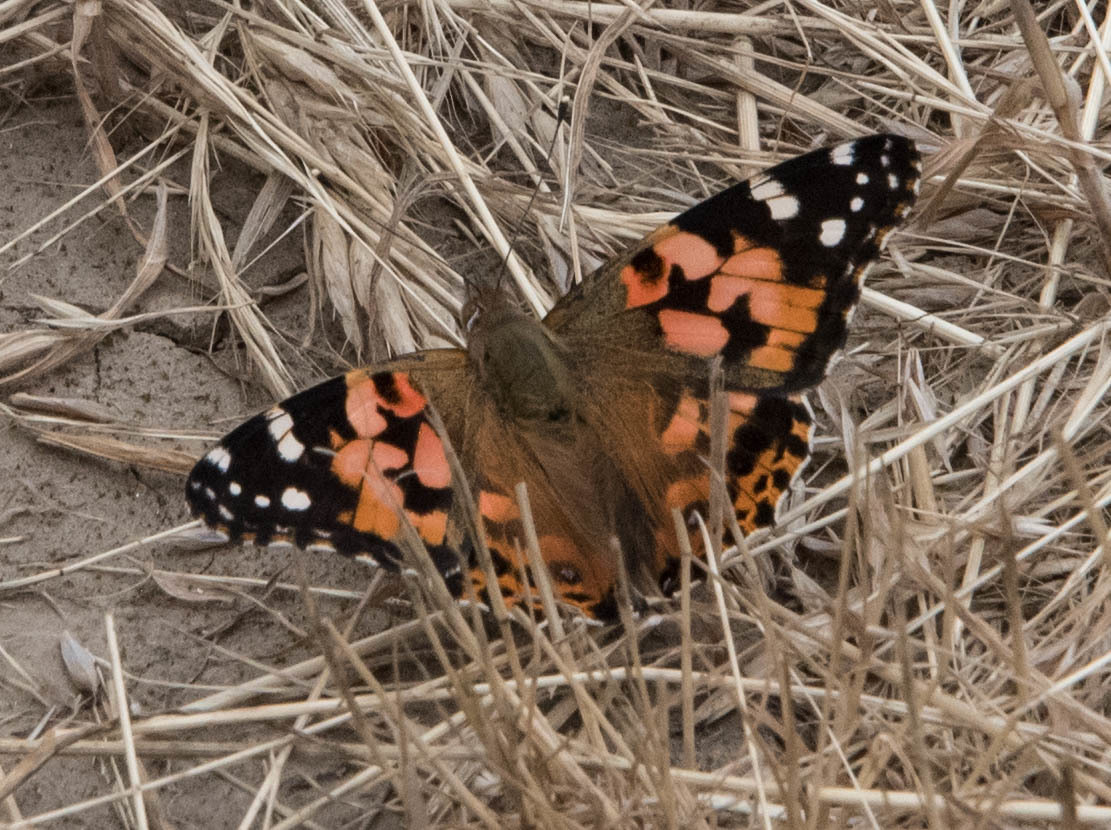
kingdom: Animalia
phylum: Arthropoda
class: Insecta
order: Lepidoptera
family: Nymphalidae
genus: Vanessa
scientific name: Vanessa cardui
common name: Painted lady
